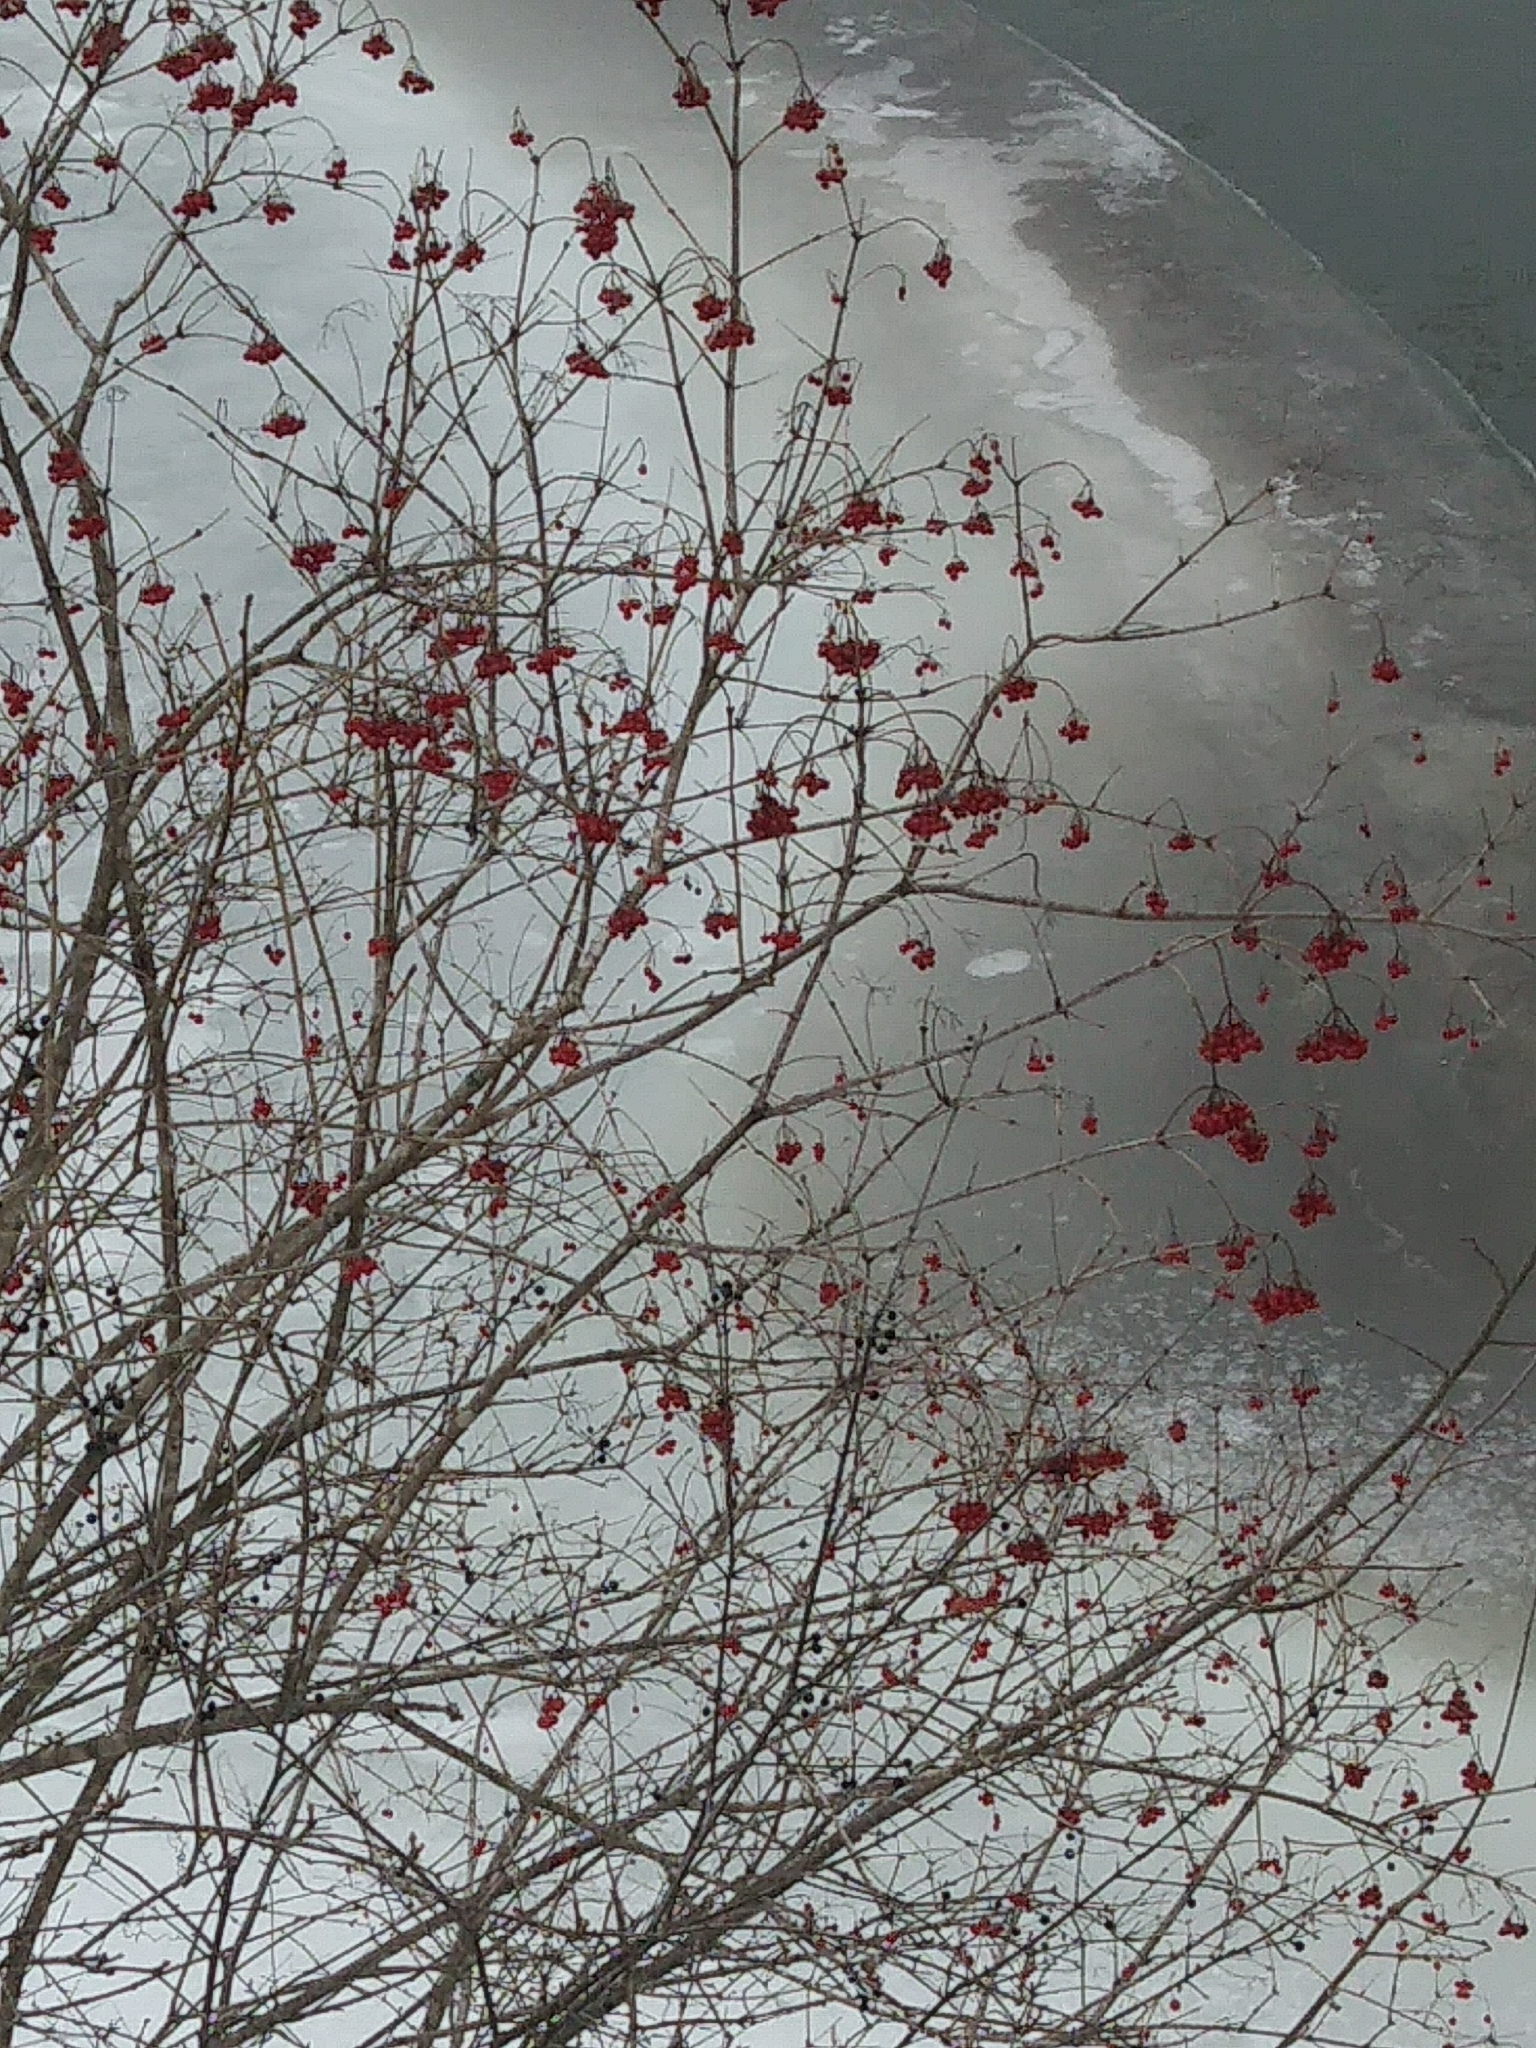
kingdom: Plantae
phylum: Tracheophyta
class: Magnoliopsida
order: Dipsacales
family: Viburnaceae
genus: Viburnum
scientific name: Viburnum opulus
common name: Guelder-rose
